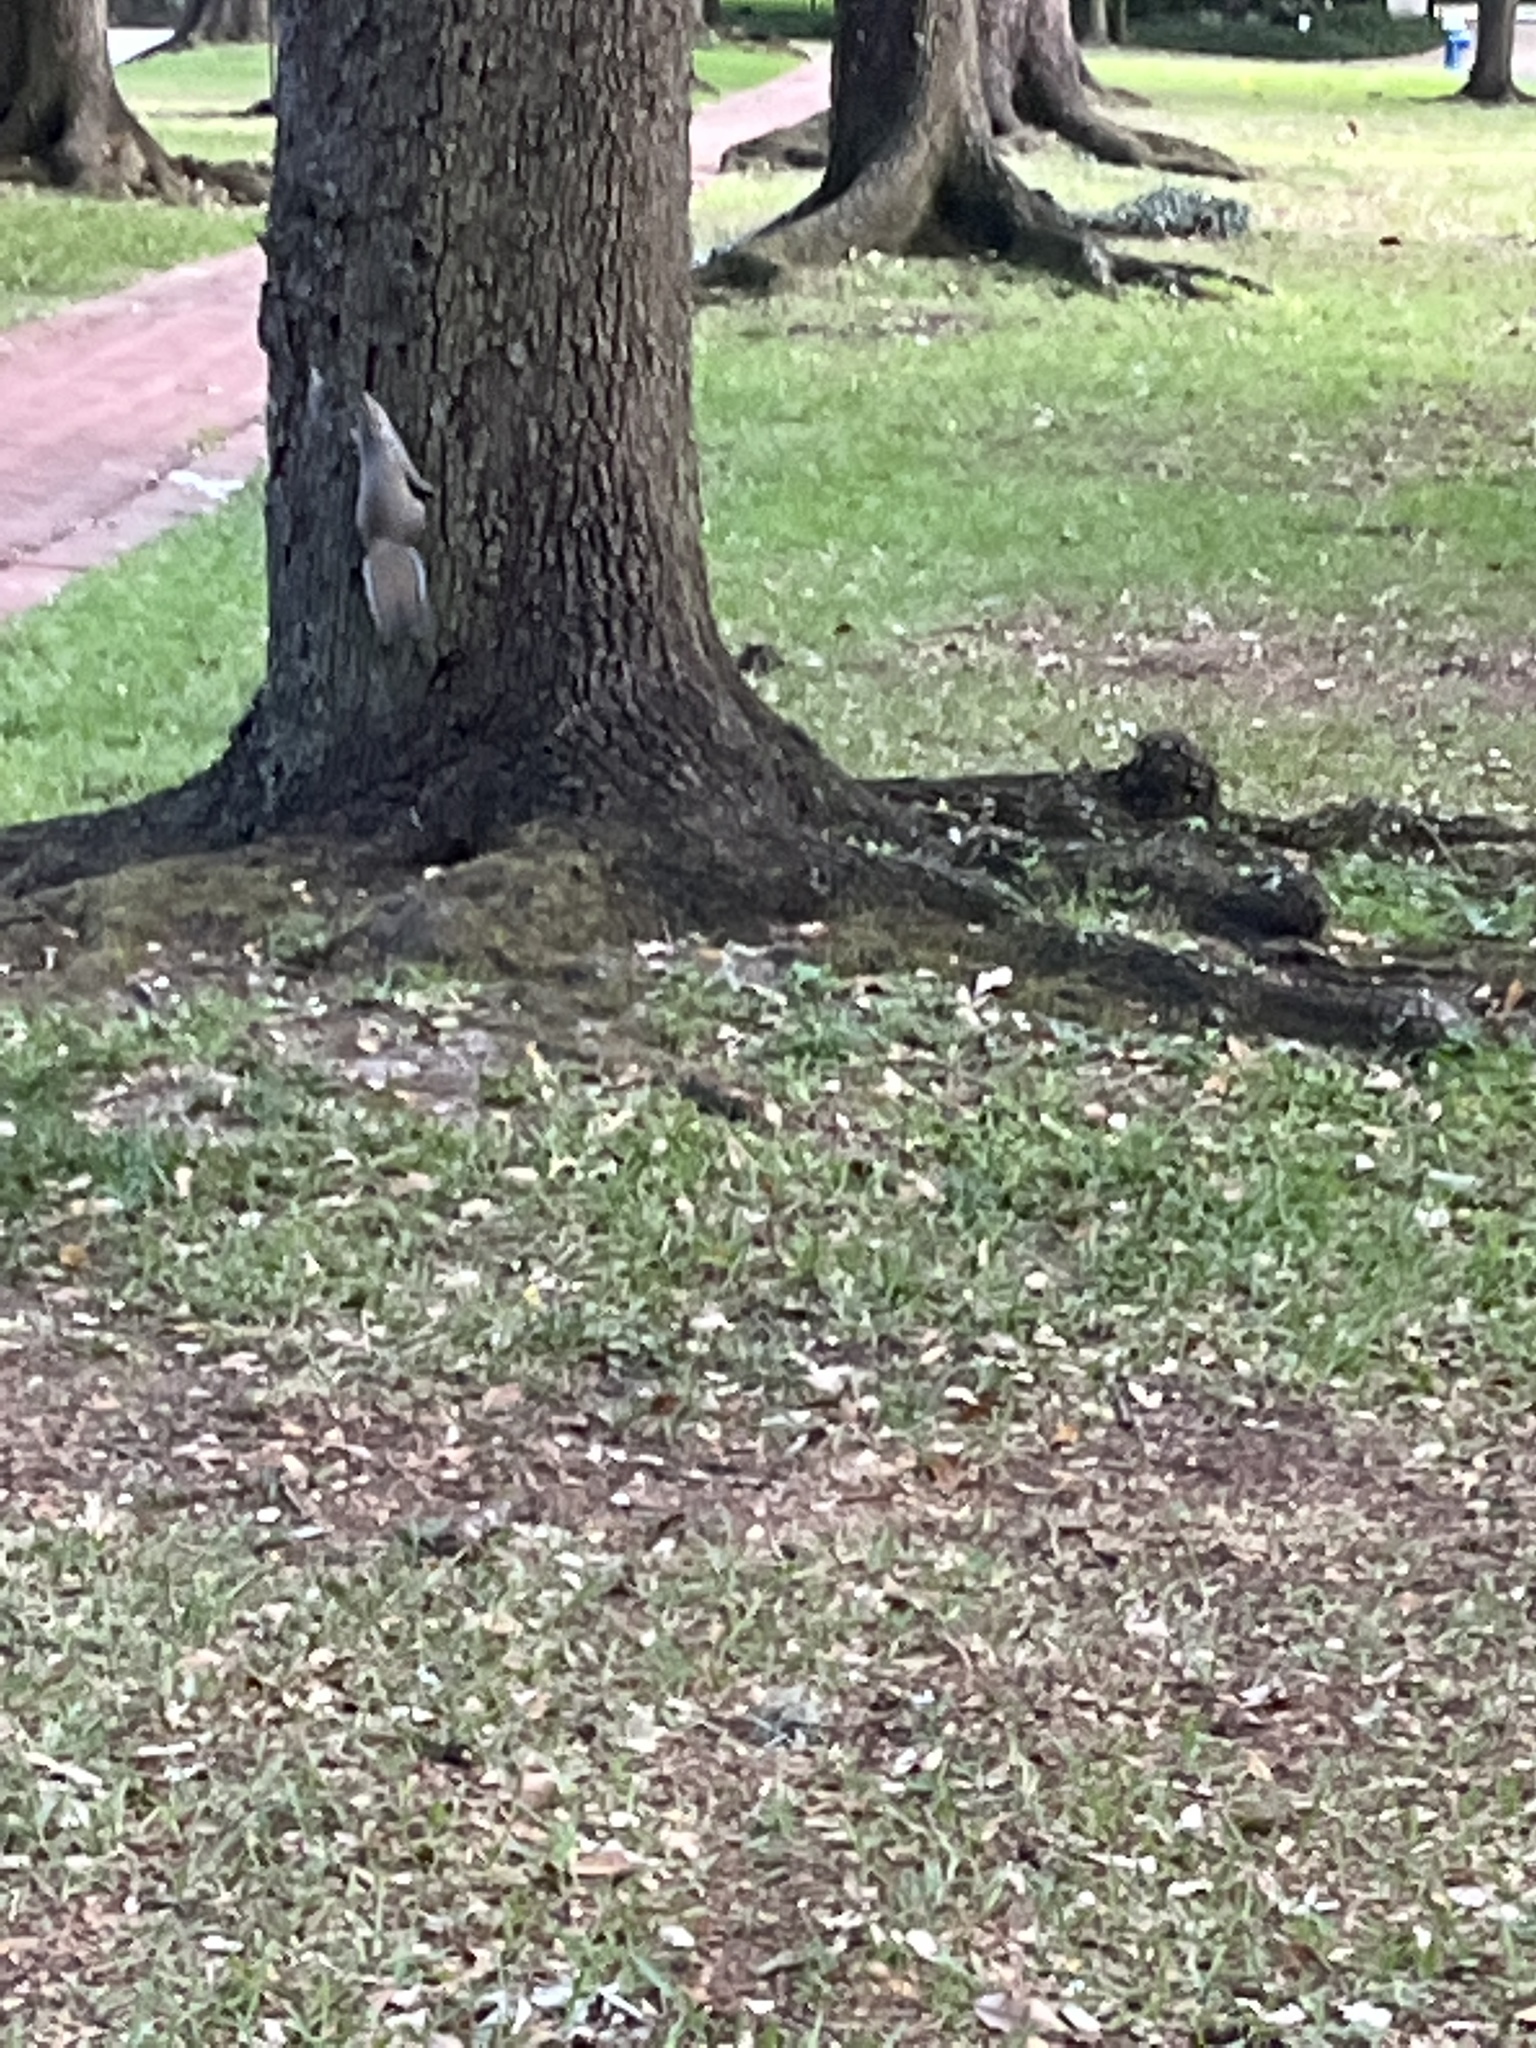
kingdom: Animalia
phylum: Chordata
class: Mammalia
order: Rodentia
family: Sciuridae
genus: Sciurus
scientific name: Sciurus carolinensis
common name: Eastern gray squirrel
